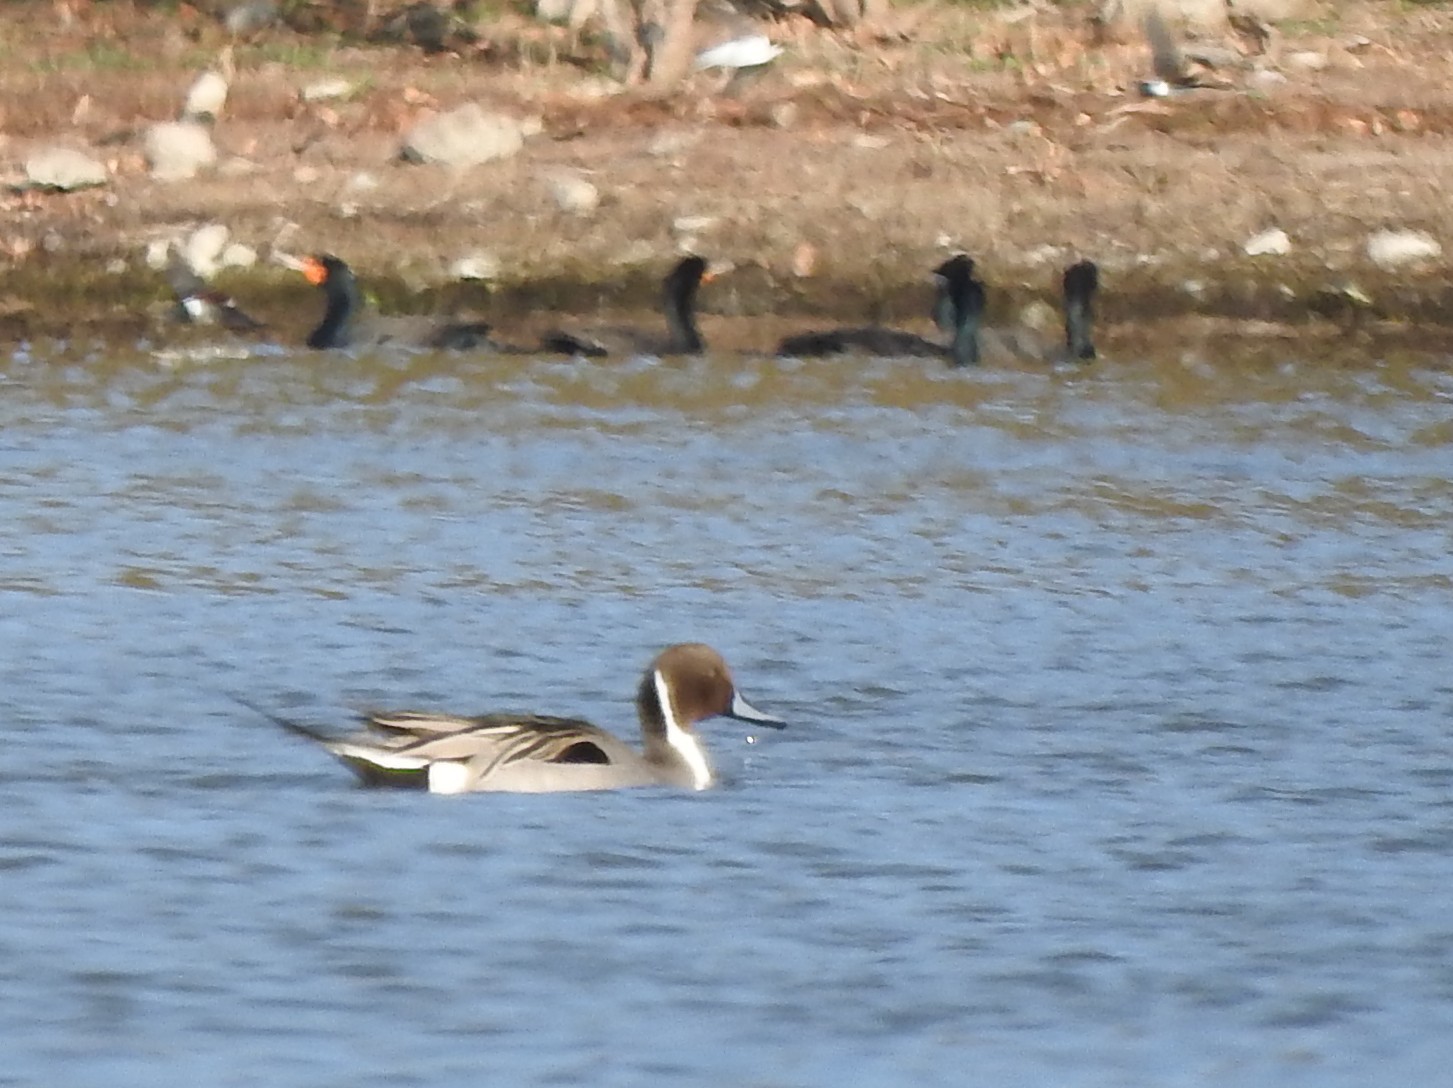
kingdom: Animalia
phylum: Chordata
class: Aves
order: Anseriformes
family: Anatidae
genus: Anas
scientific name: Anas acuta
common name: Northern pintail
